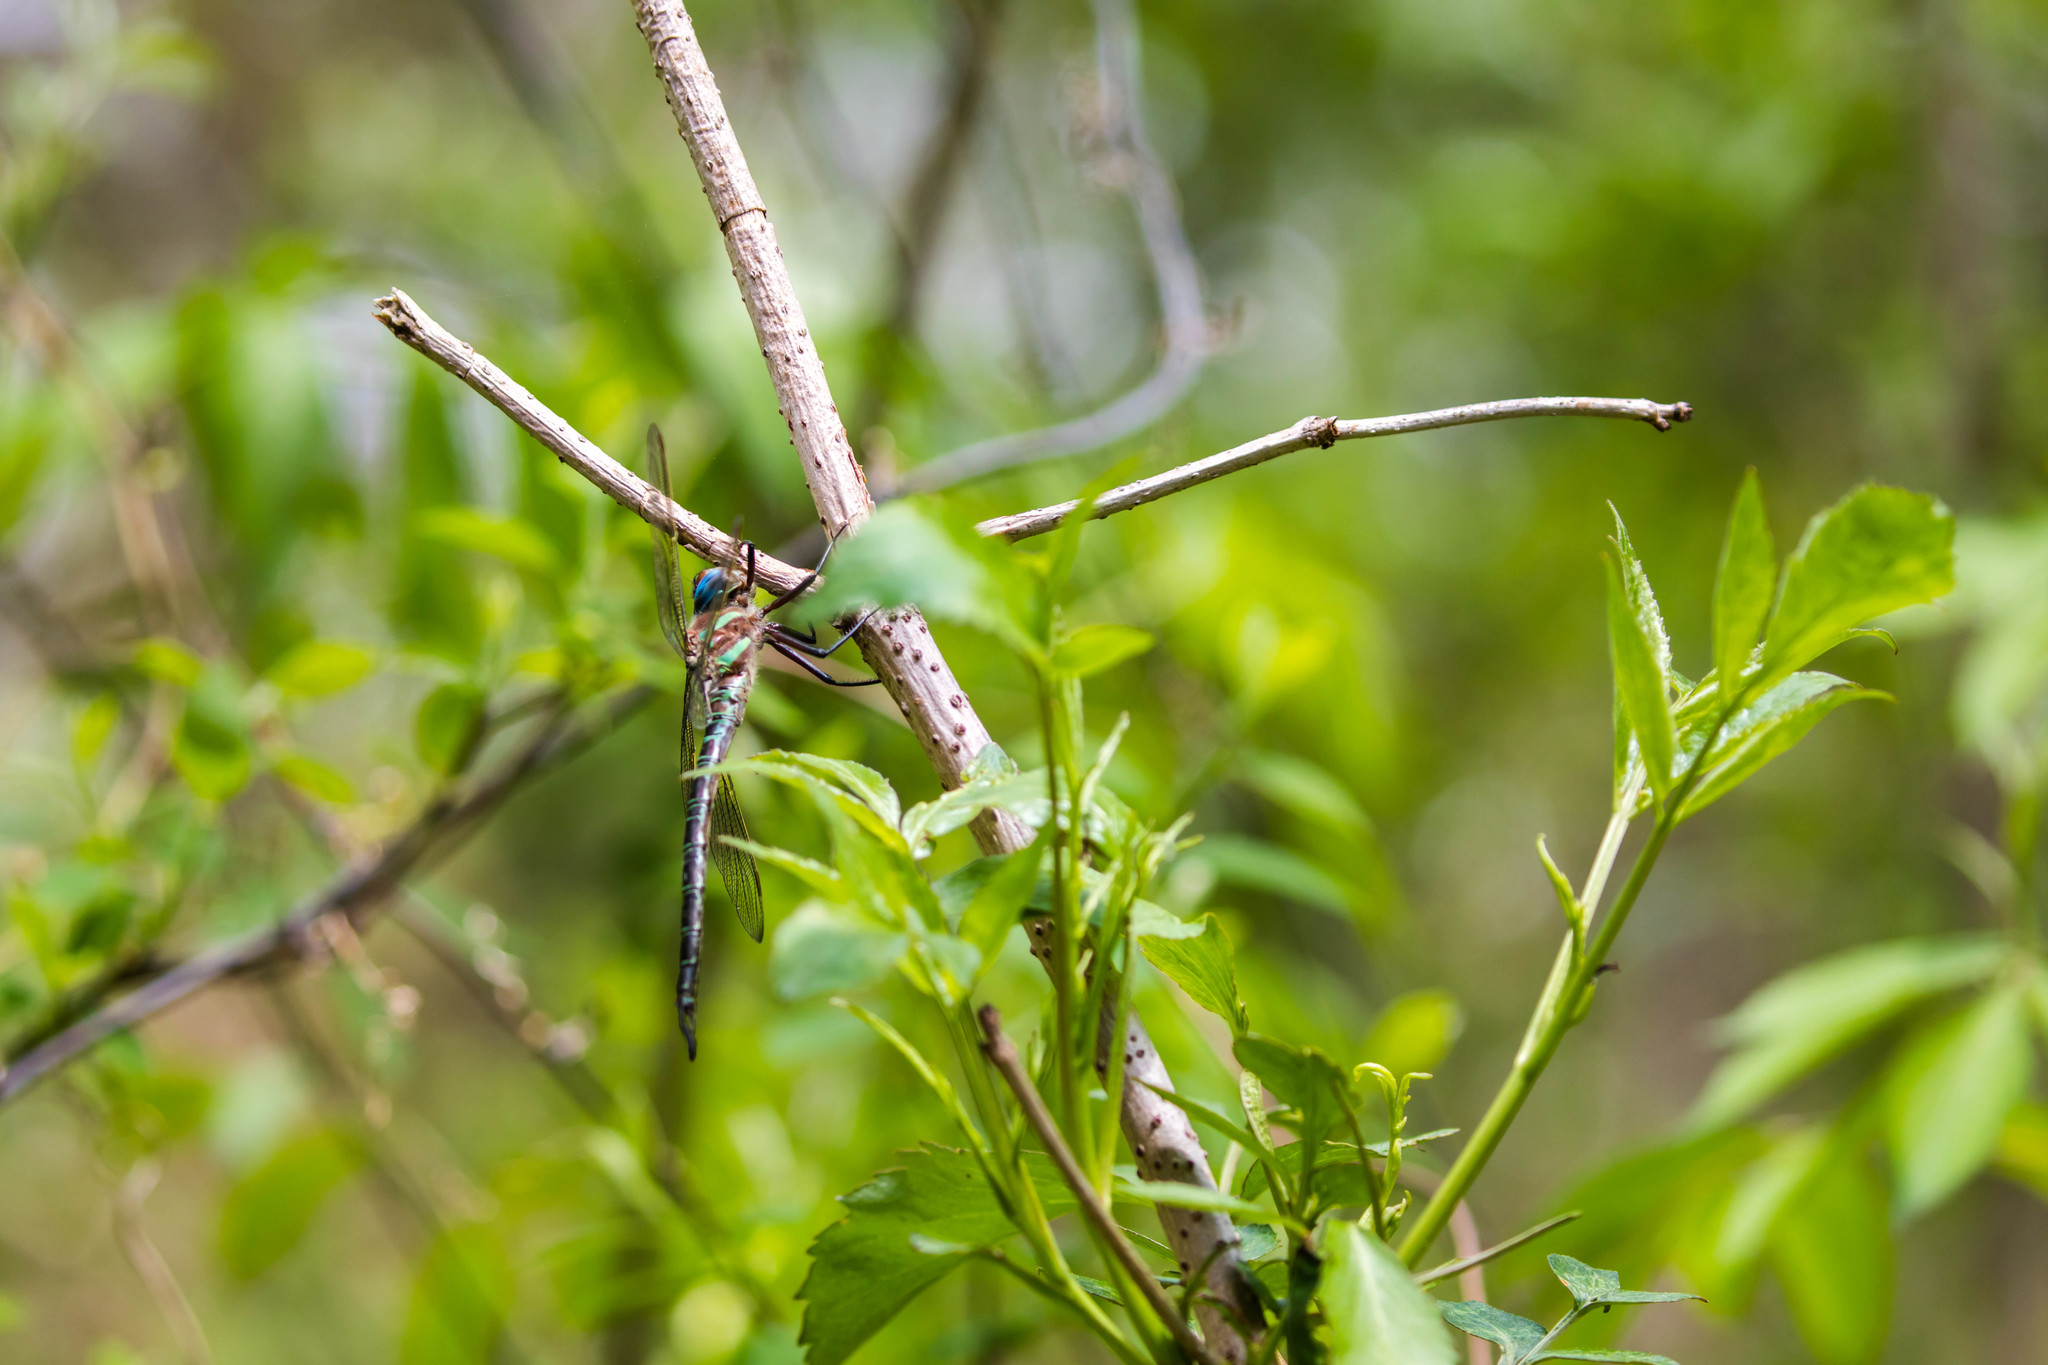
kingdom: Animalia
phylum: Arthropoda
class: Insecta
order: Odonata
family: Aeshnidae
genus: Epiaeschna
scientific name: Epiaeschna heros
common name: Swamp darner
